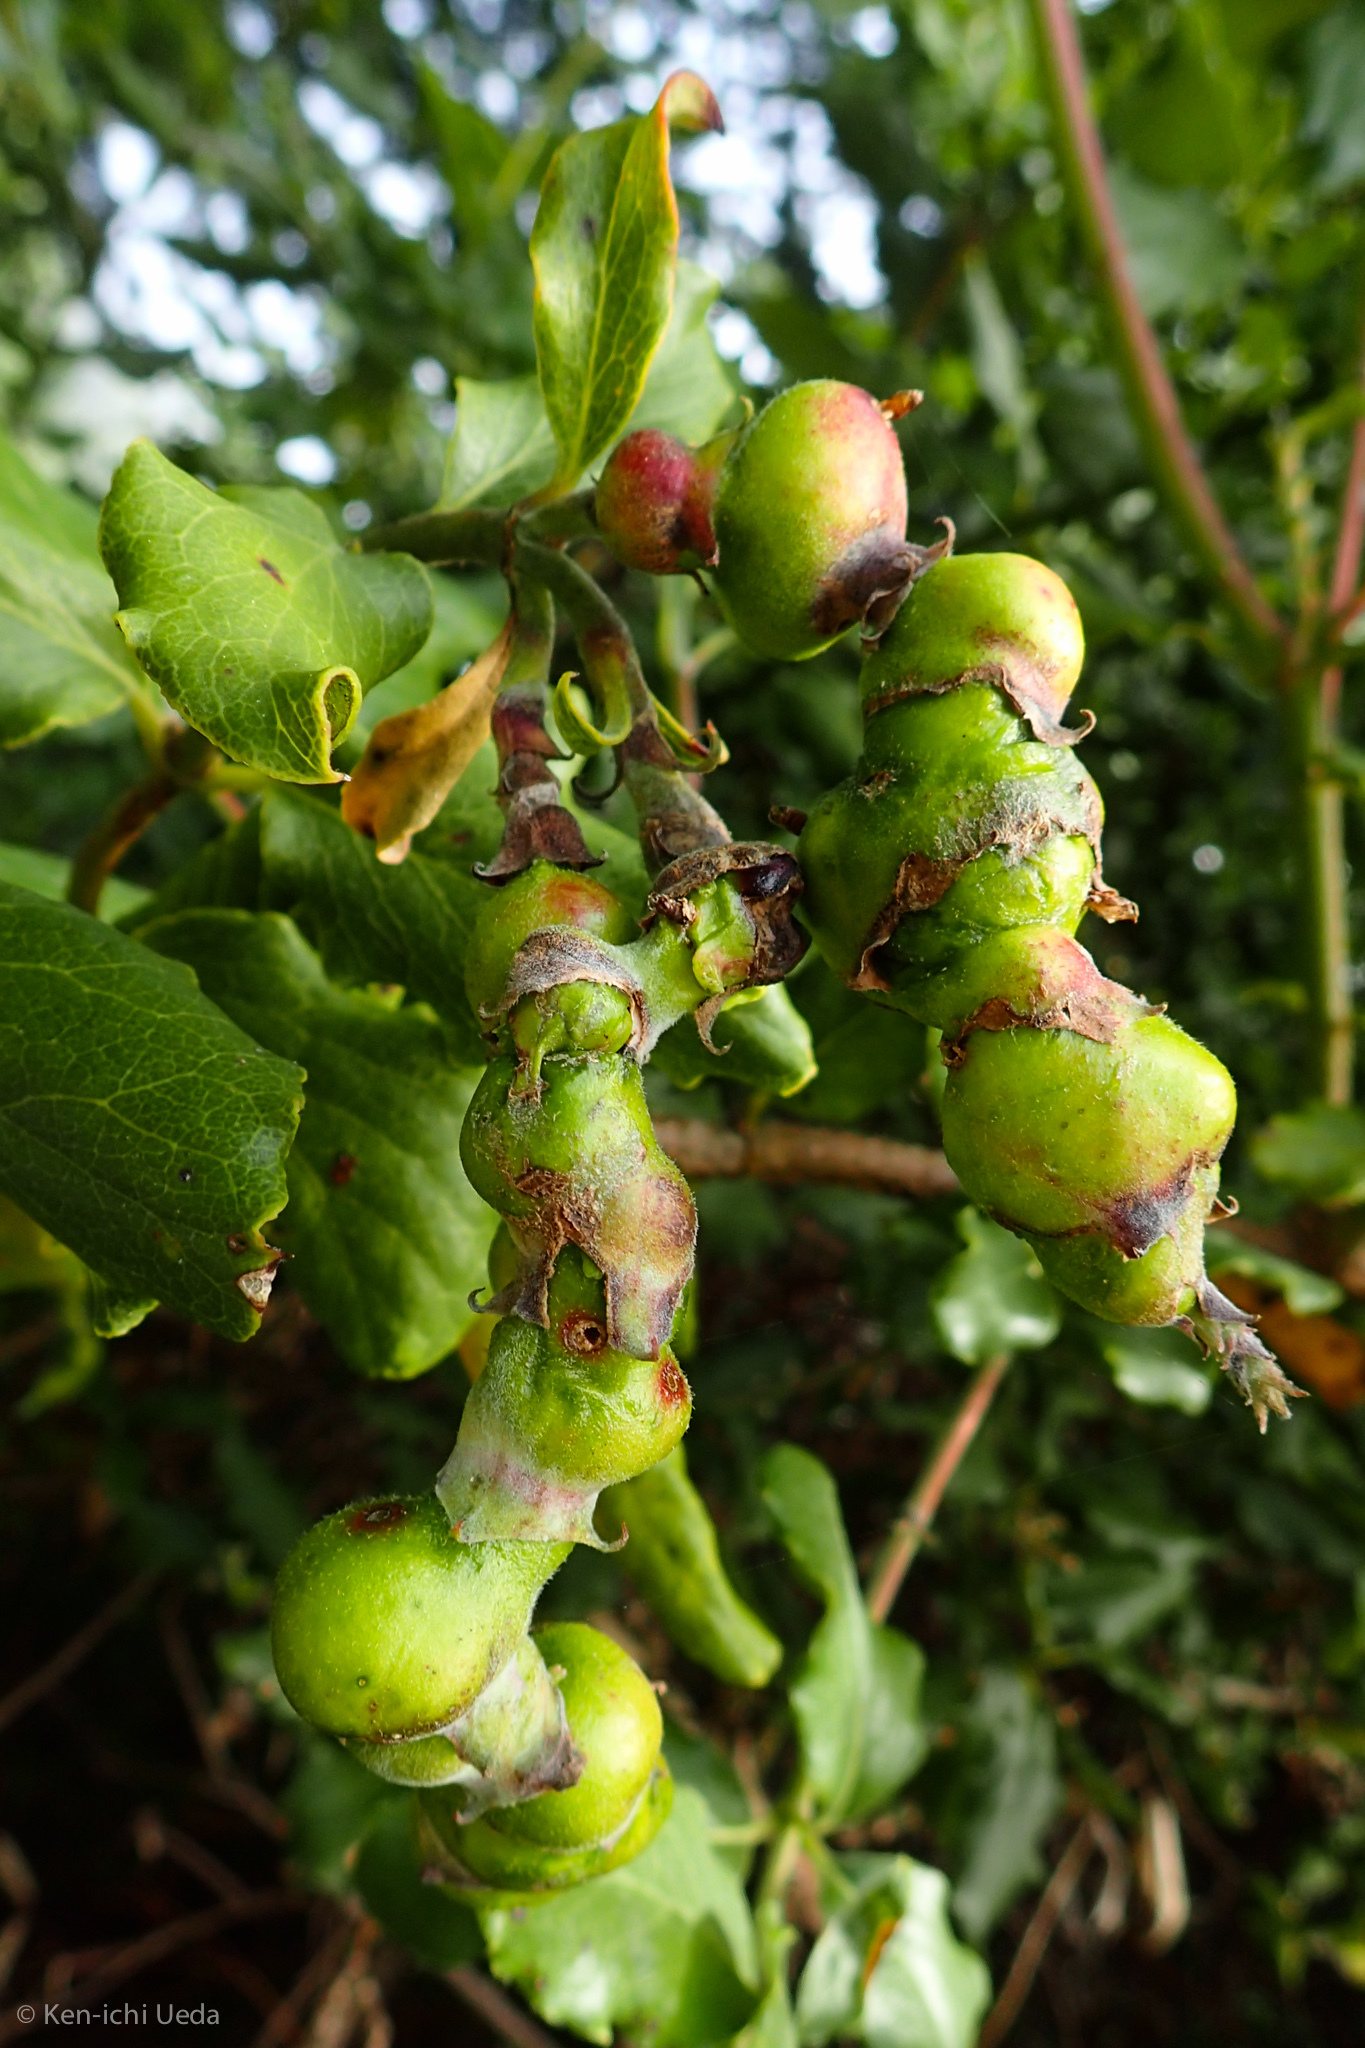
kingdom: Animalia
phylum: Arthropoda
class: Insecta
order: Diptera
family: Cecidomyiidae
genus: Asphondylia
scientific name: Asphondylia garryae
